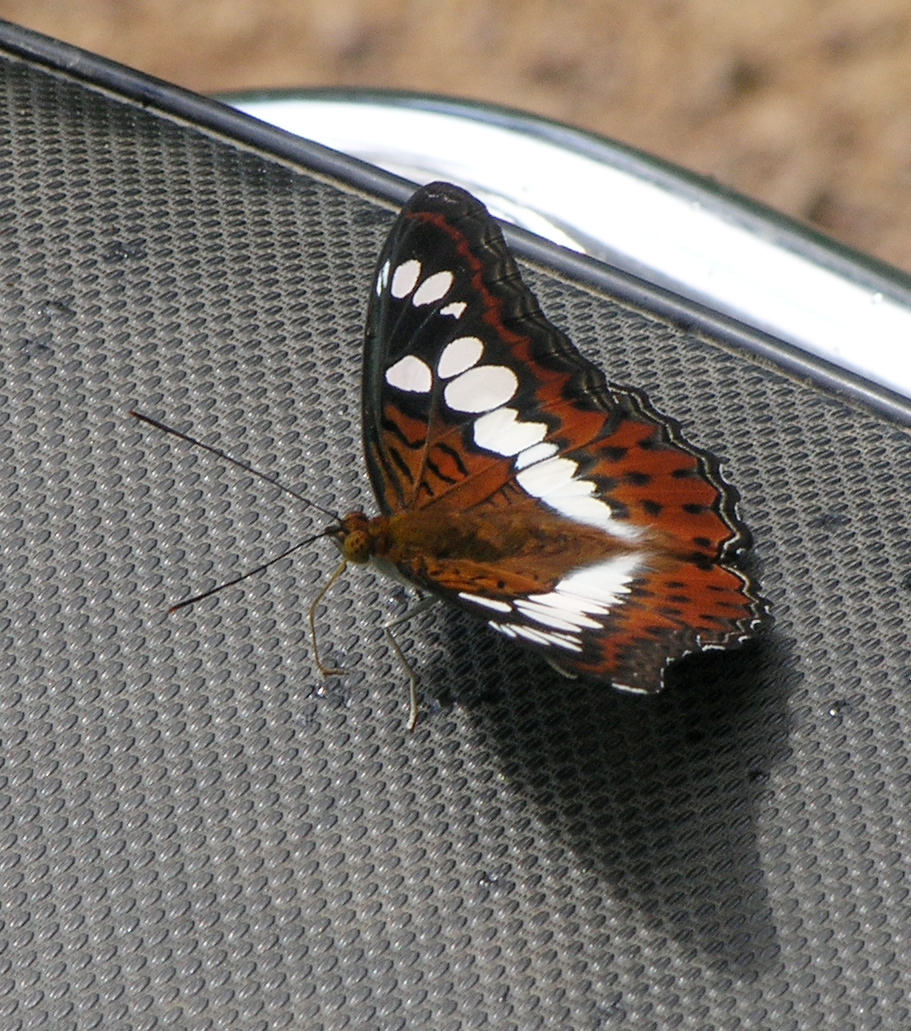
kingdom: Animalia
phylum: Arthropoda
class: Insecta
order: Lepidoptera
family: Nymphalidae
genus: Limenitis
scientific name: Limenitis Moduza procris
